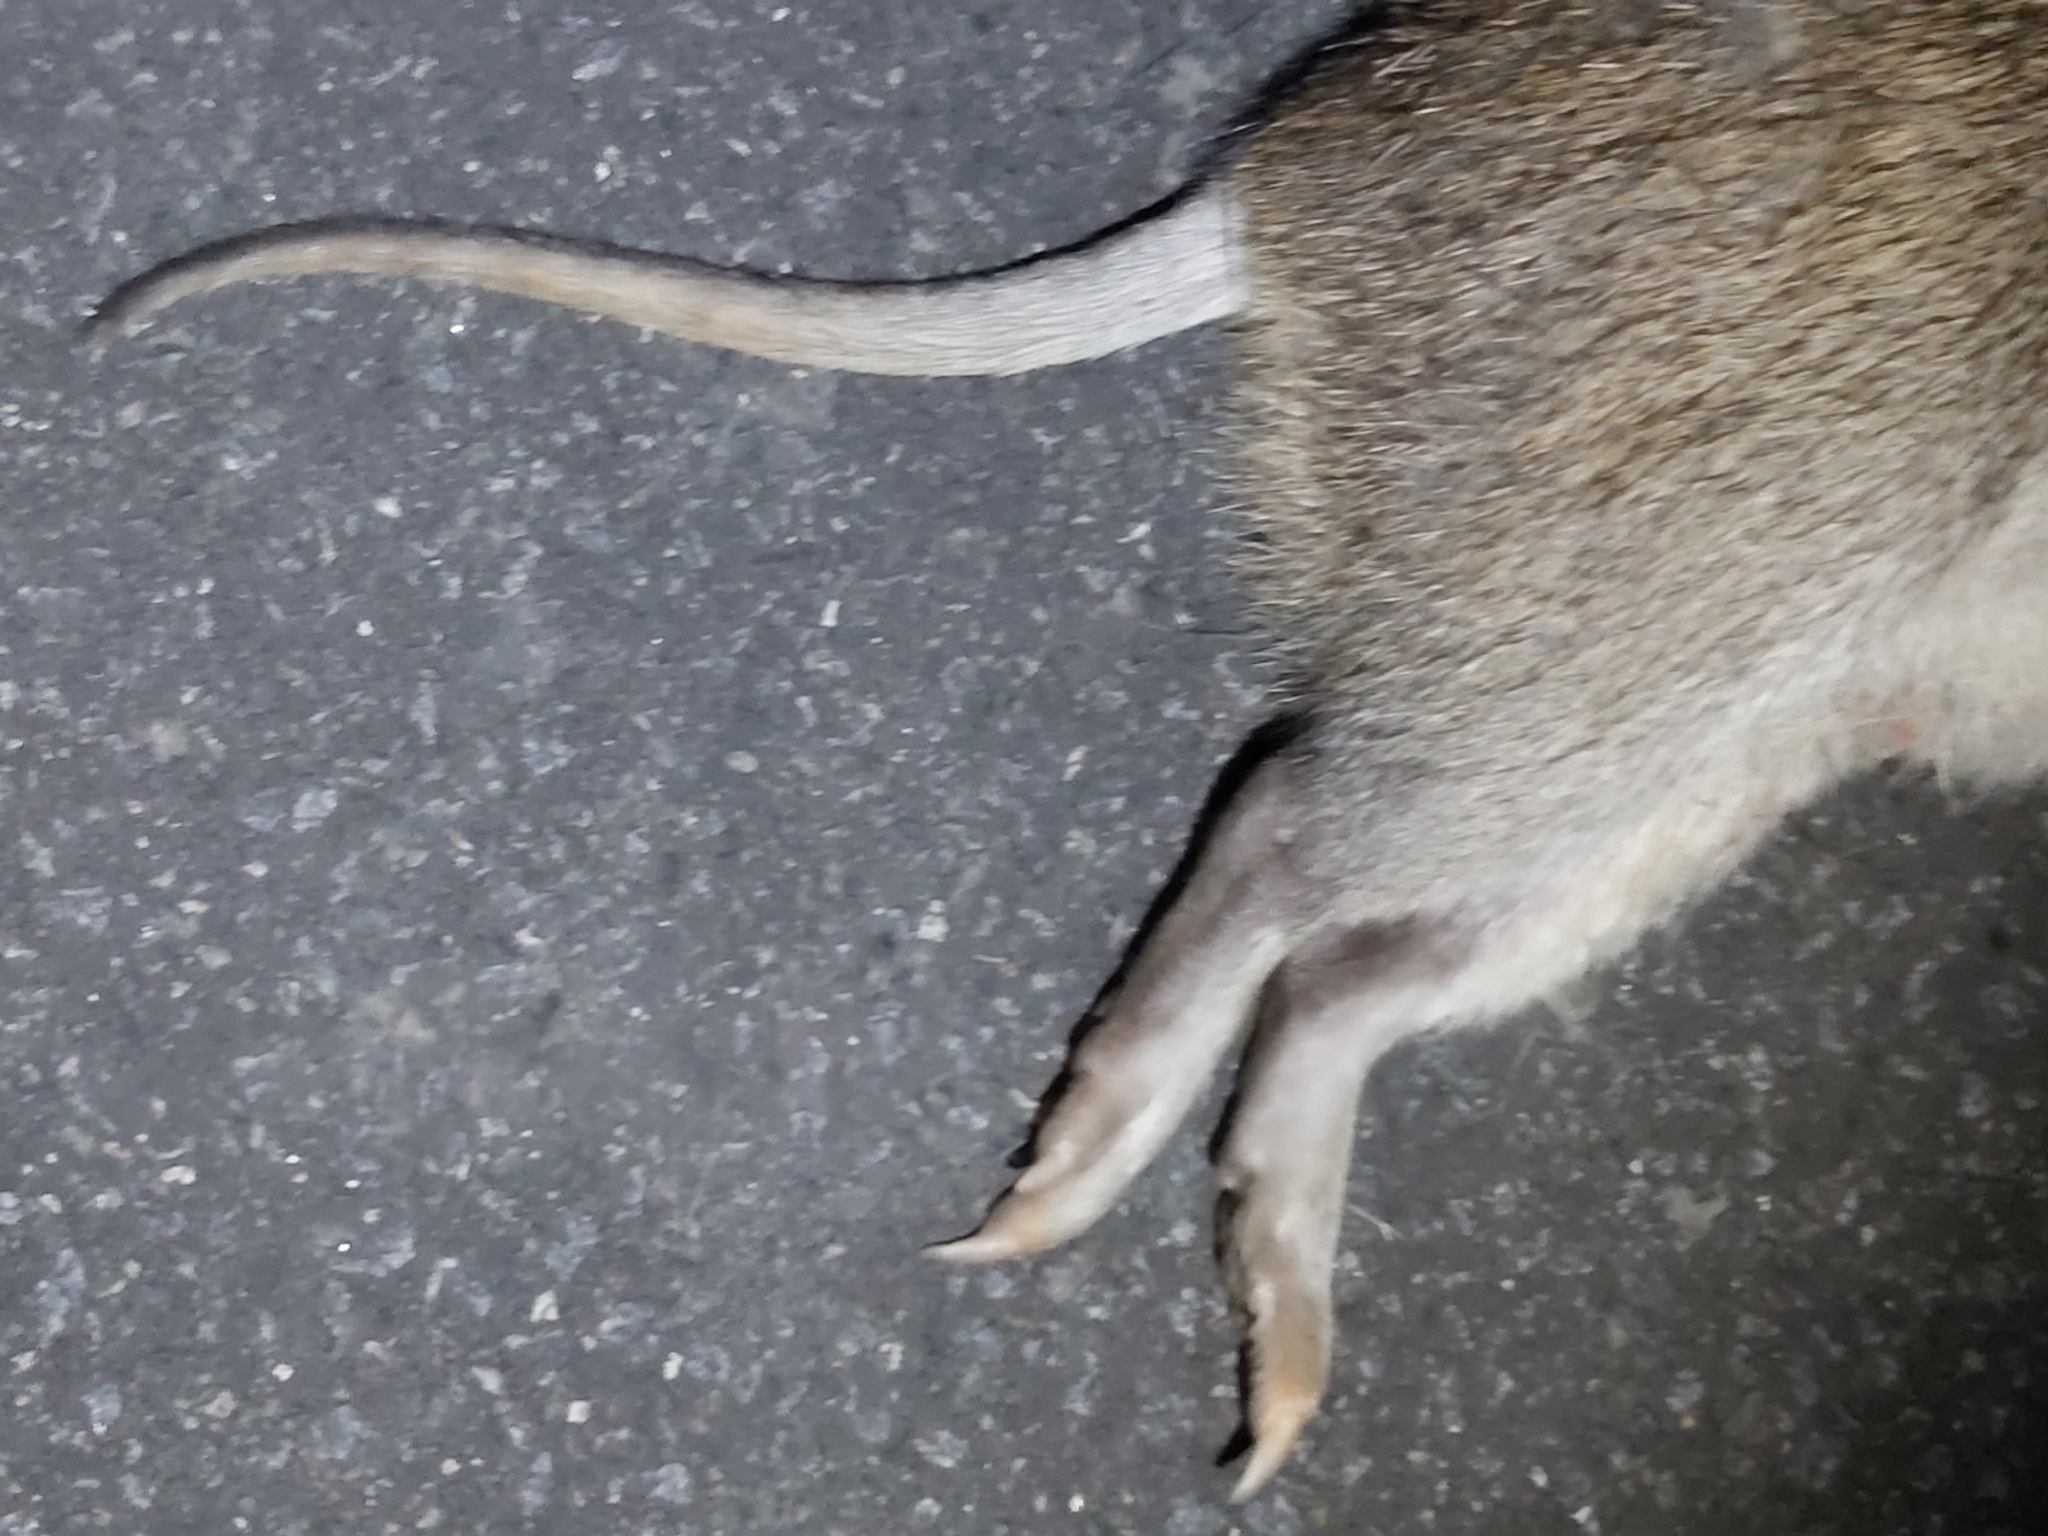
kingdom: Animalia
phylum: Chordata
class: Mammalia
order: Peramelemorphia
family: Peramelidae
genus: Isoodon
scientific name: Isoodon macrourus
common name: Northern brown bandicoot
